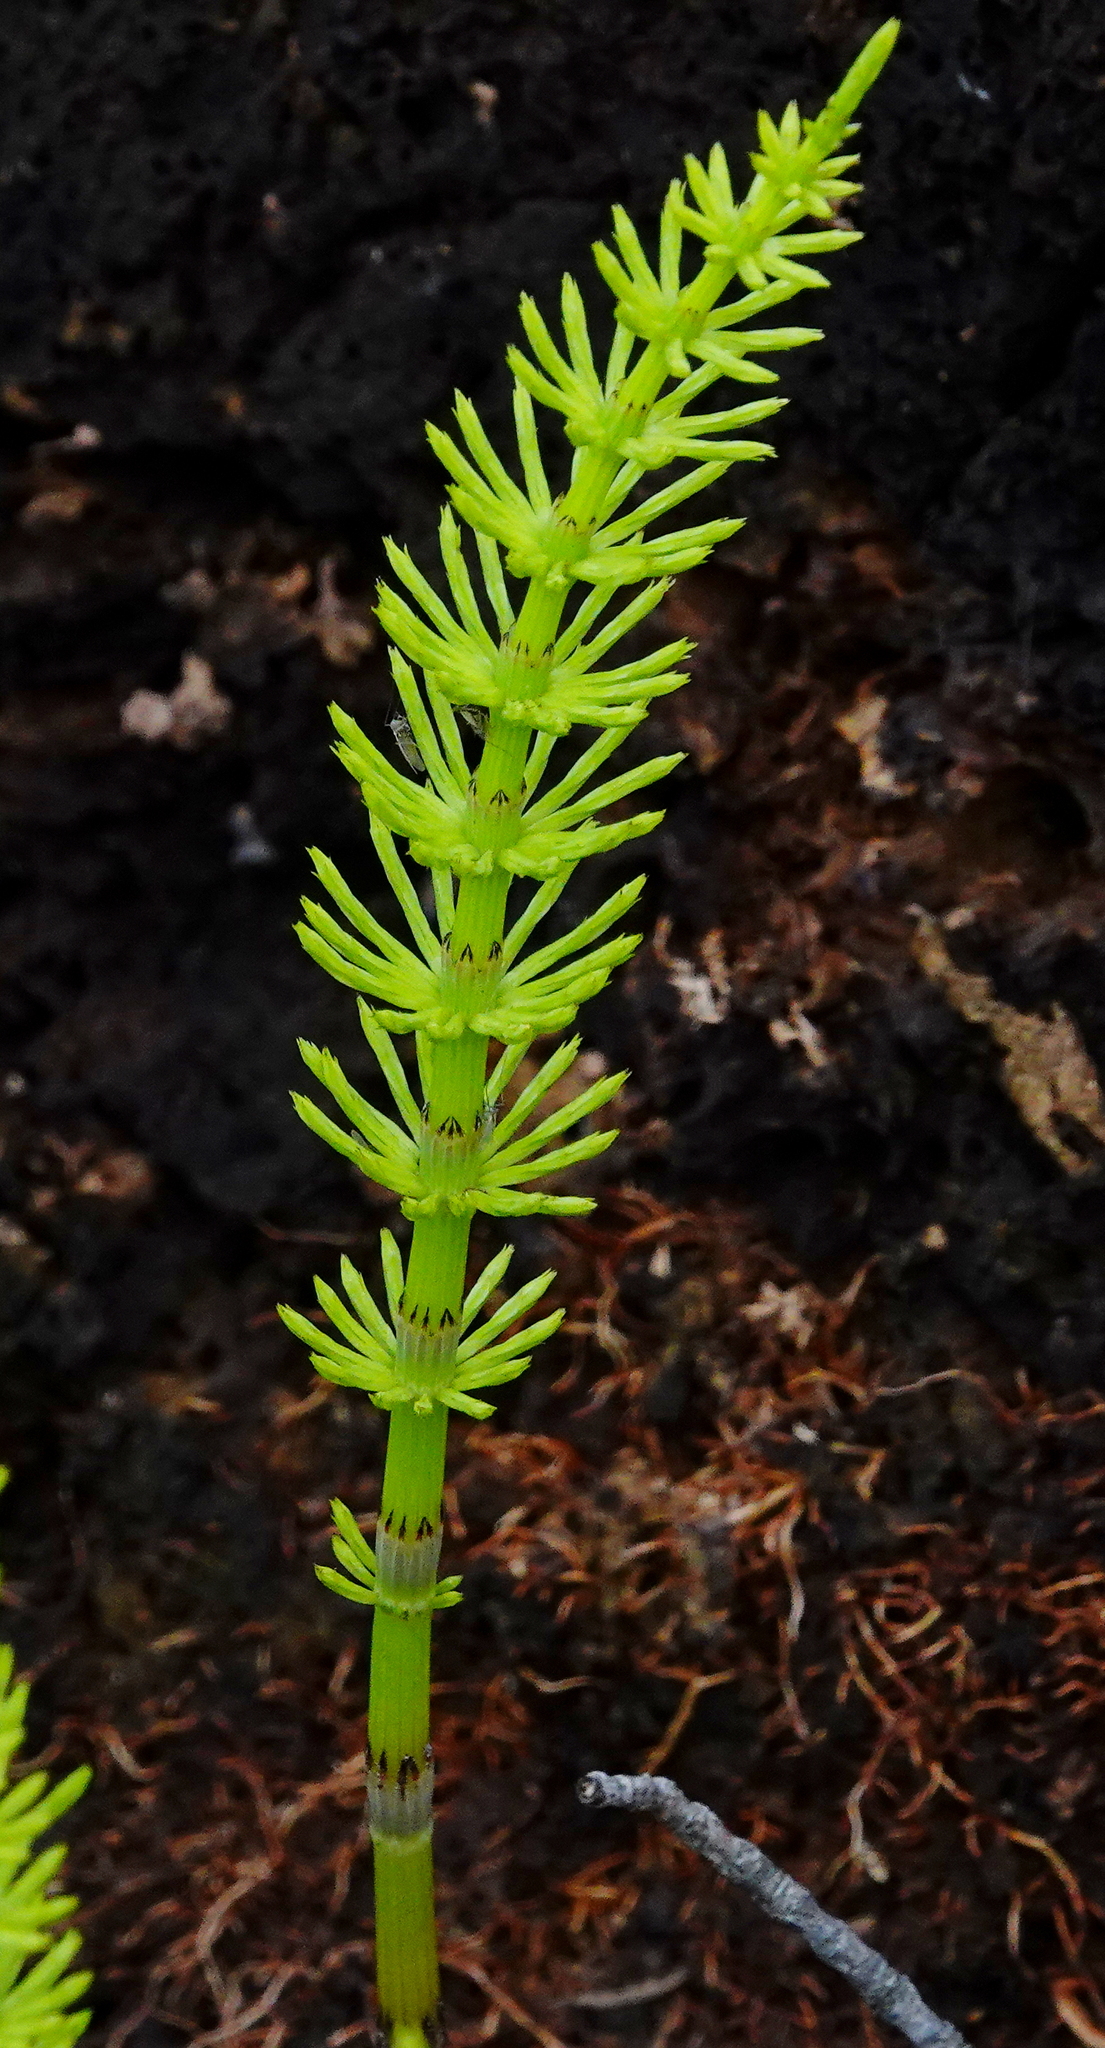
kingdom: Plantae
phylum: Tracheophyta
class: Polypodiopsida
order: Equisetales
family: Equisetaceae
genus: Equisetum
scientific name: Equisetum arvense
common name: Field horsetail
